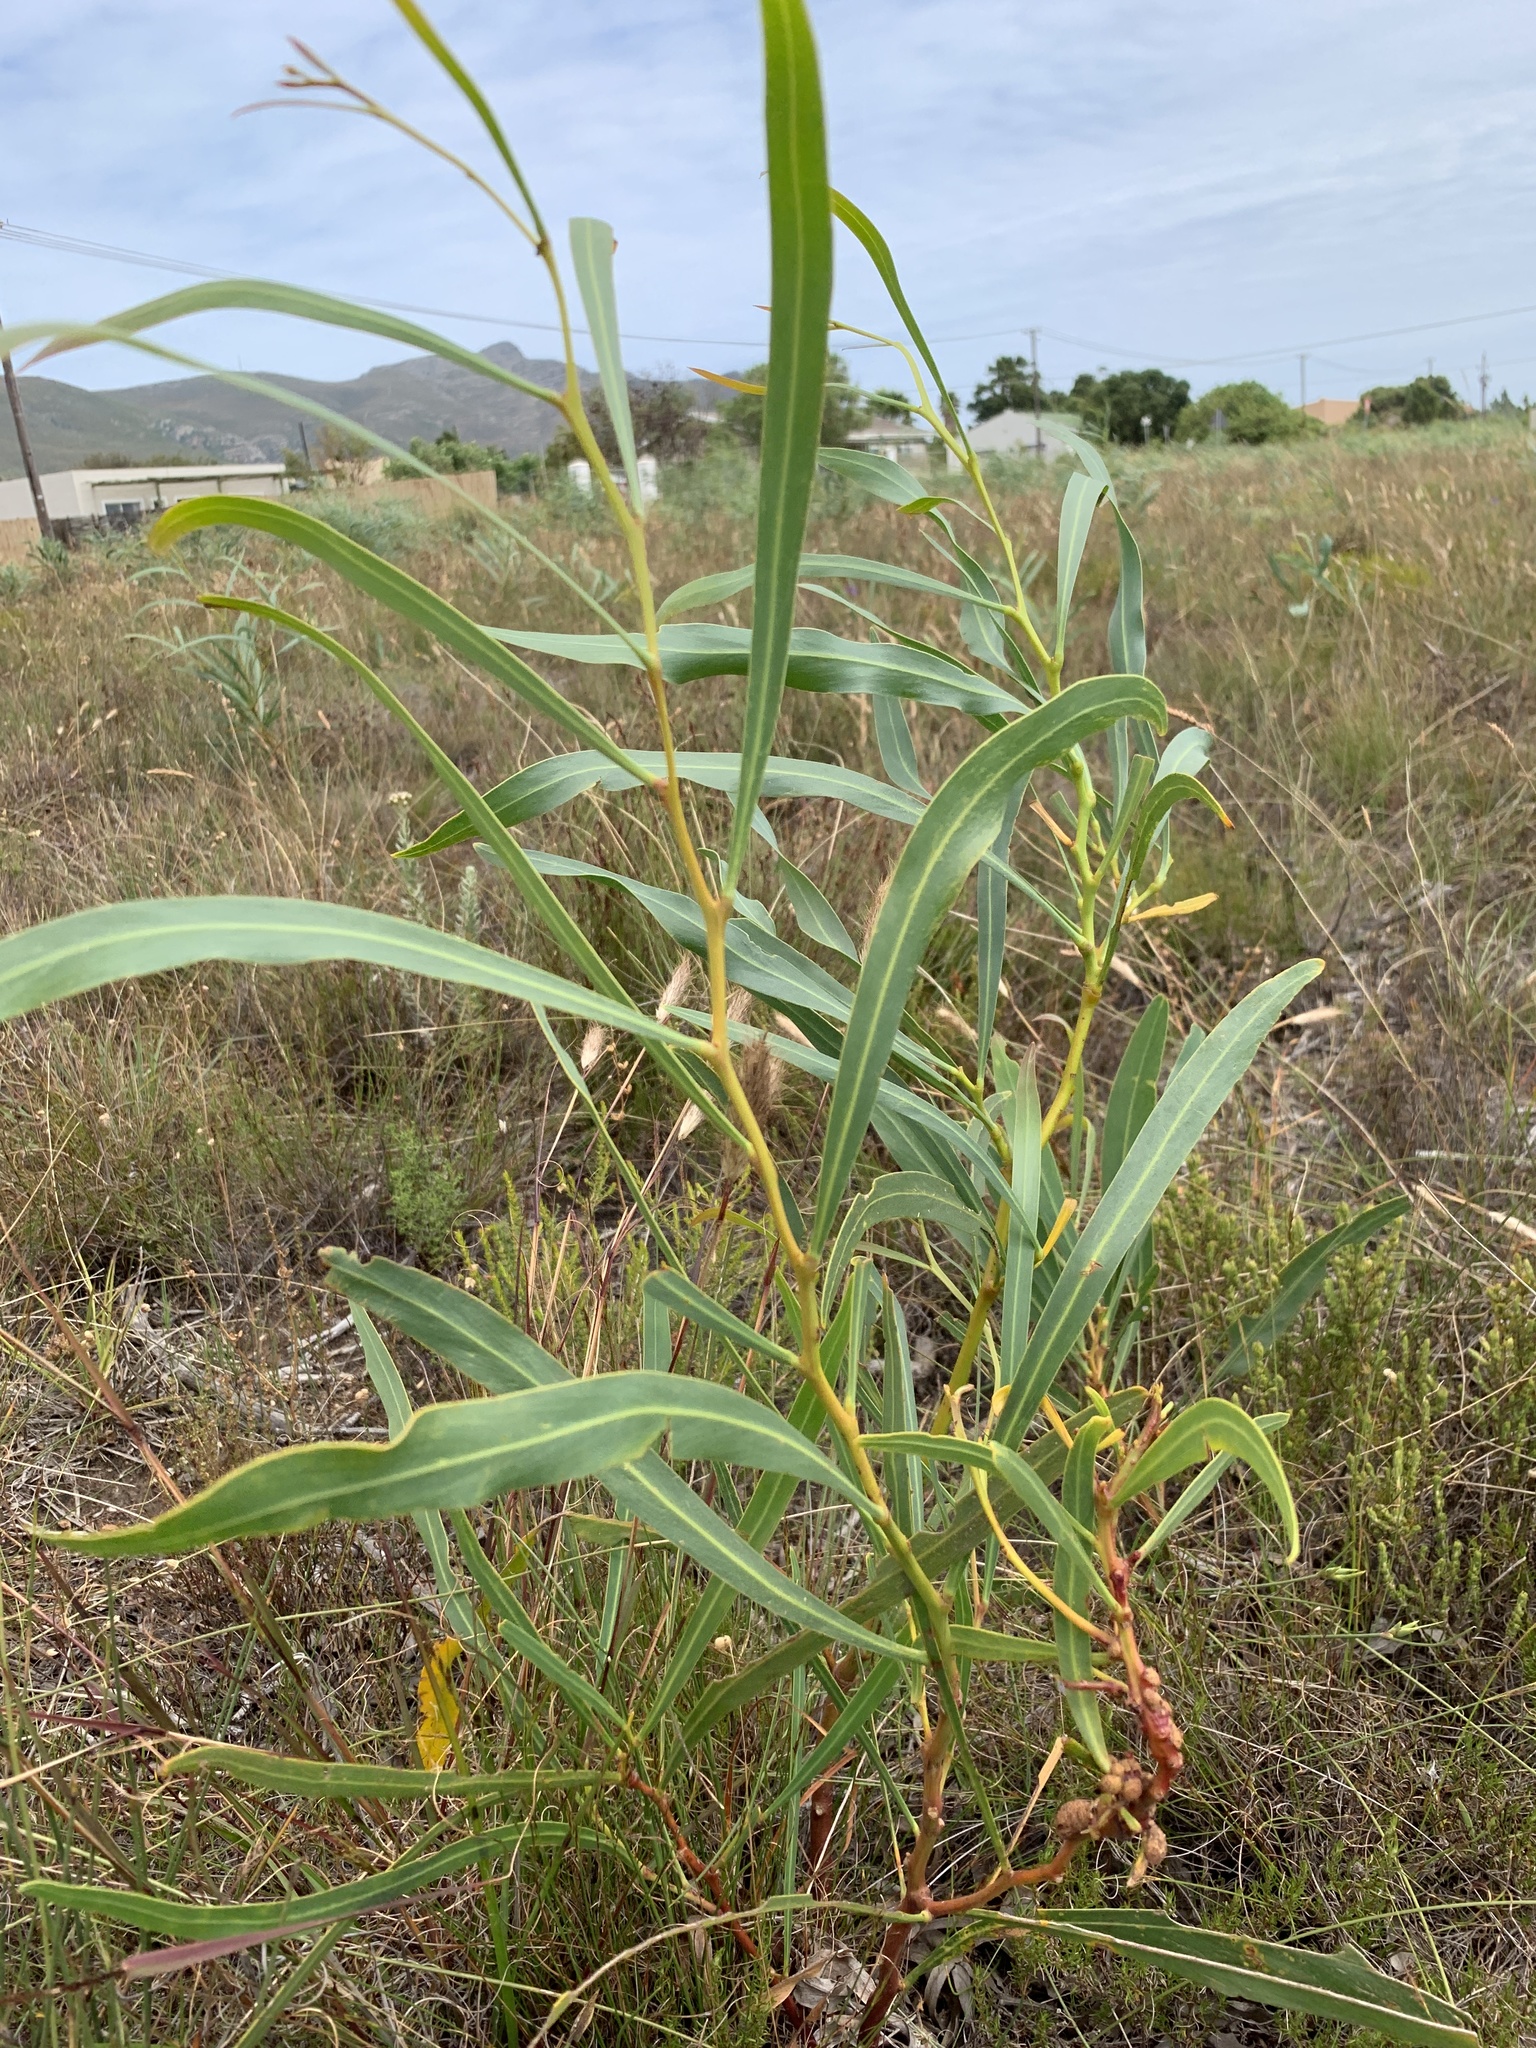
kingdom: Plantae
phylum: Tracheophyta
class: Magnoliopsida
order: Fabales
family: Fabaceae
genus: Acacia
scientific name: Acacia saligna
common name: Orange wattle
